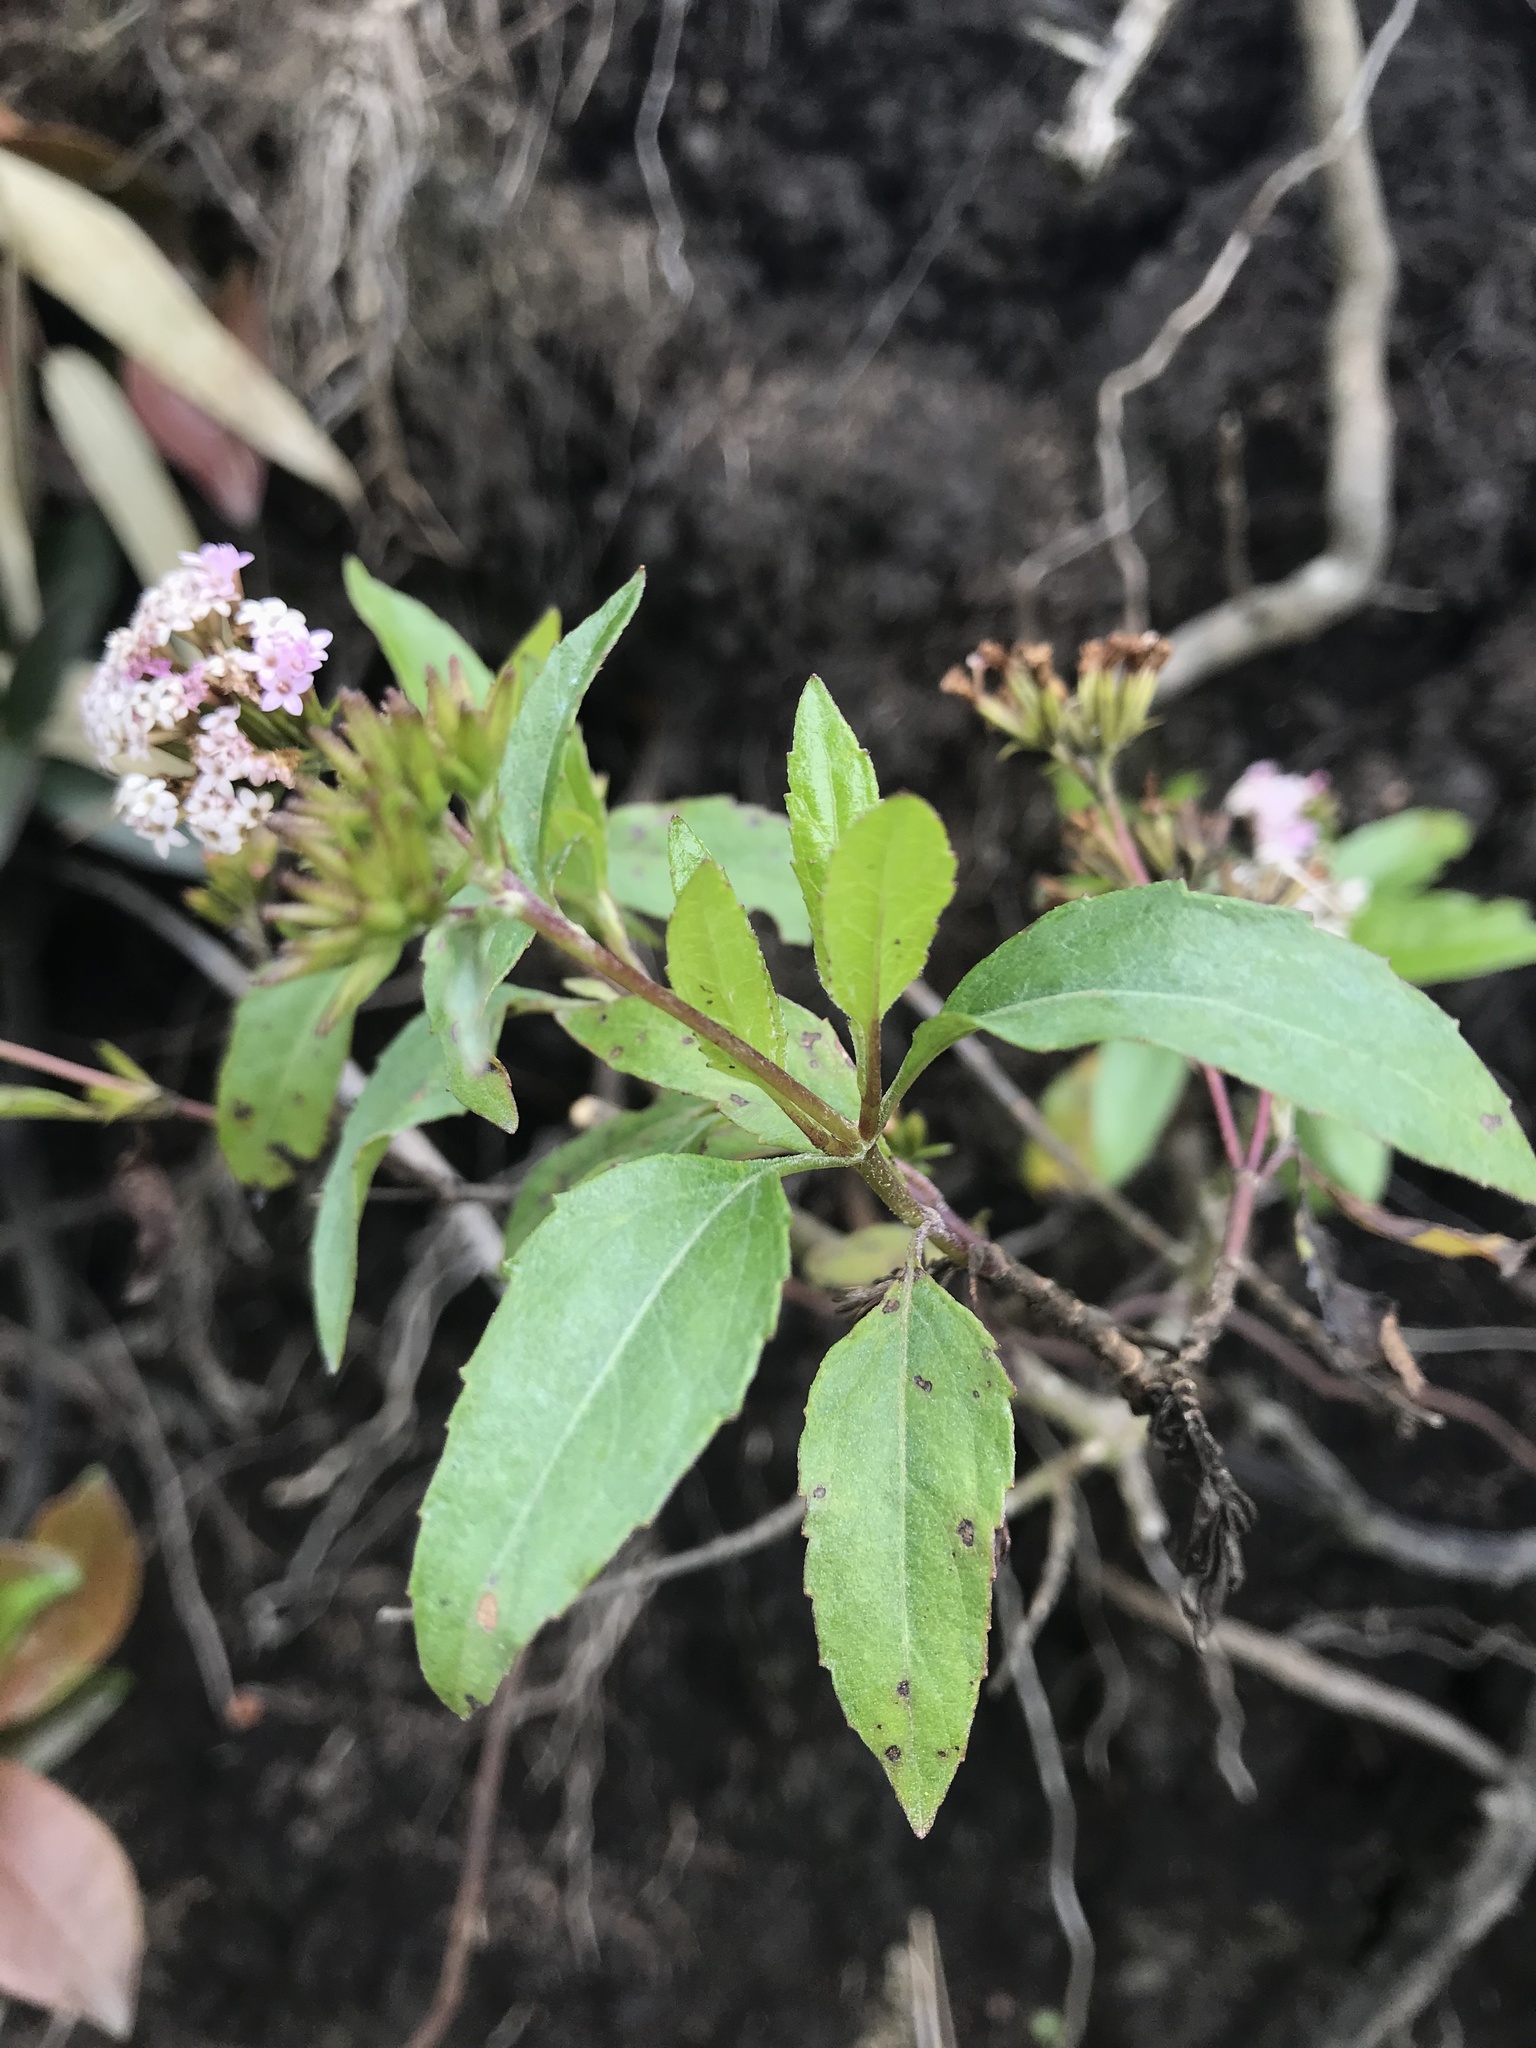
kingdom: Plantae
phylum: Tracheophyta
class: Magnoliopsida
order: Asterales
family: Asteraceae
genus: Stevia
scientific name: Stevia lucida
